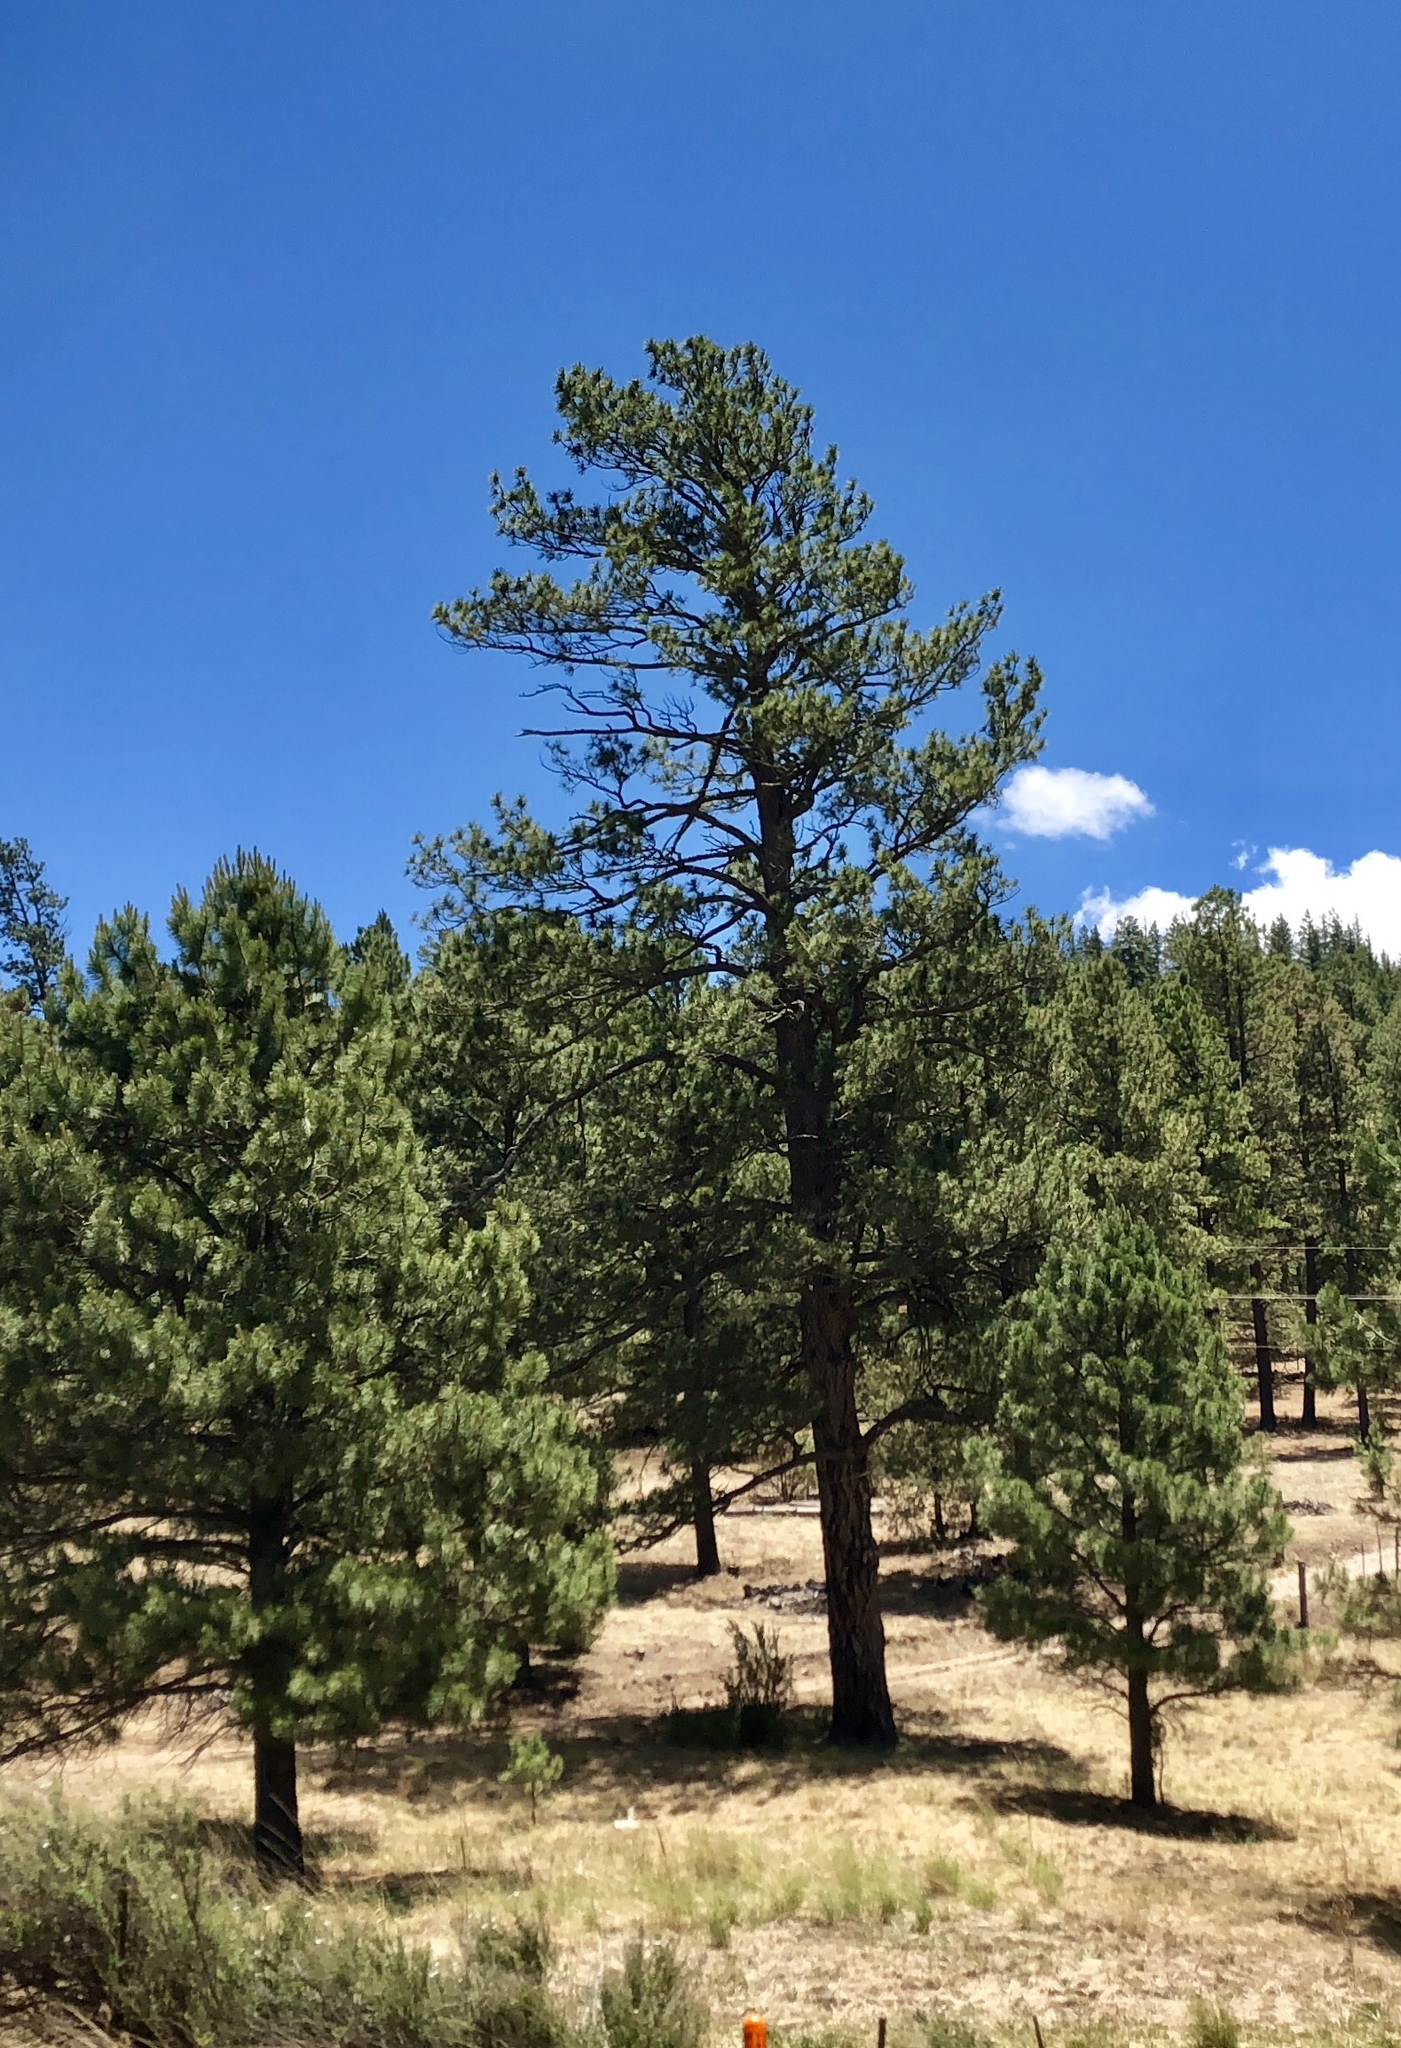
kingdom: Plantae
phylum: Tracheophyta
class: Pinopsida
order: Pinales
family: Pinaceae
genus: Pinus
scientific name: Pinus ponderosa
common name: Western yellow-pine
